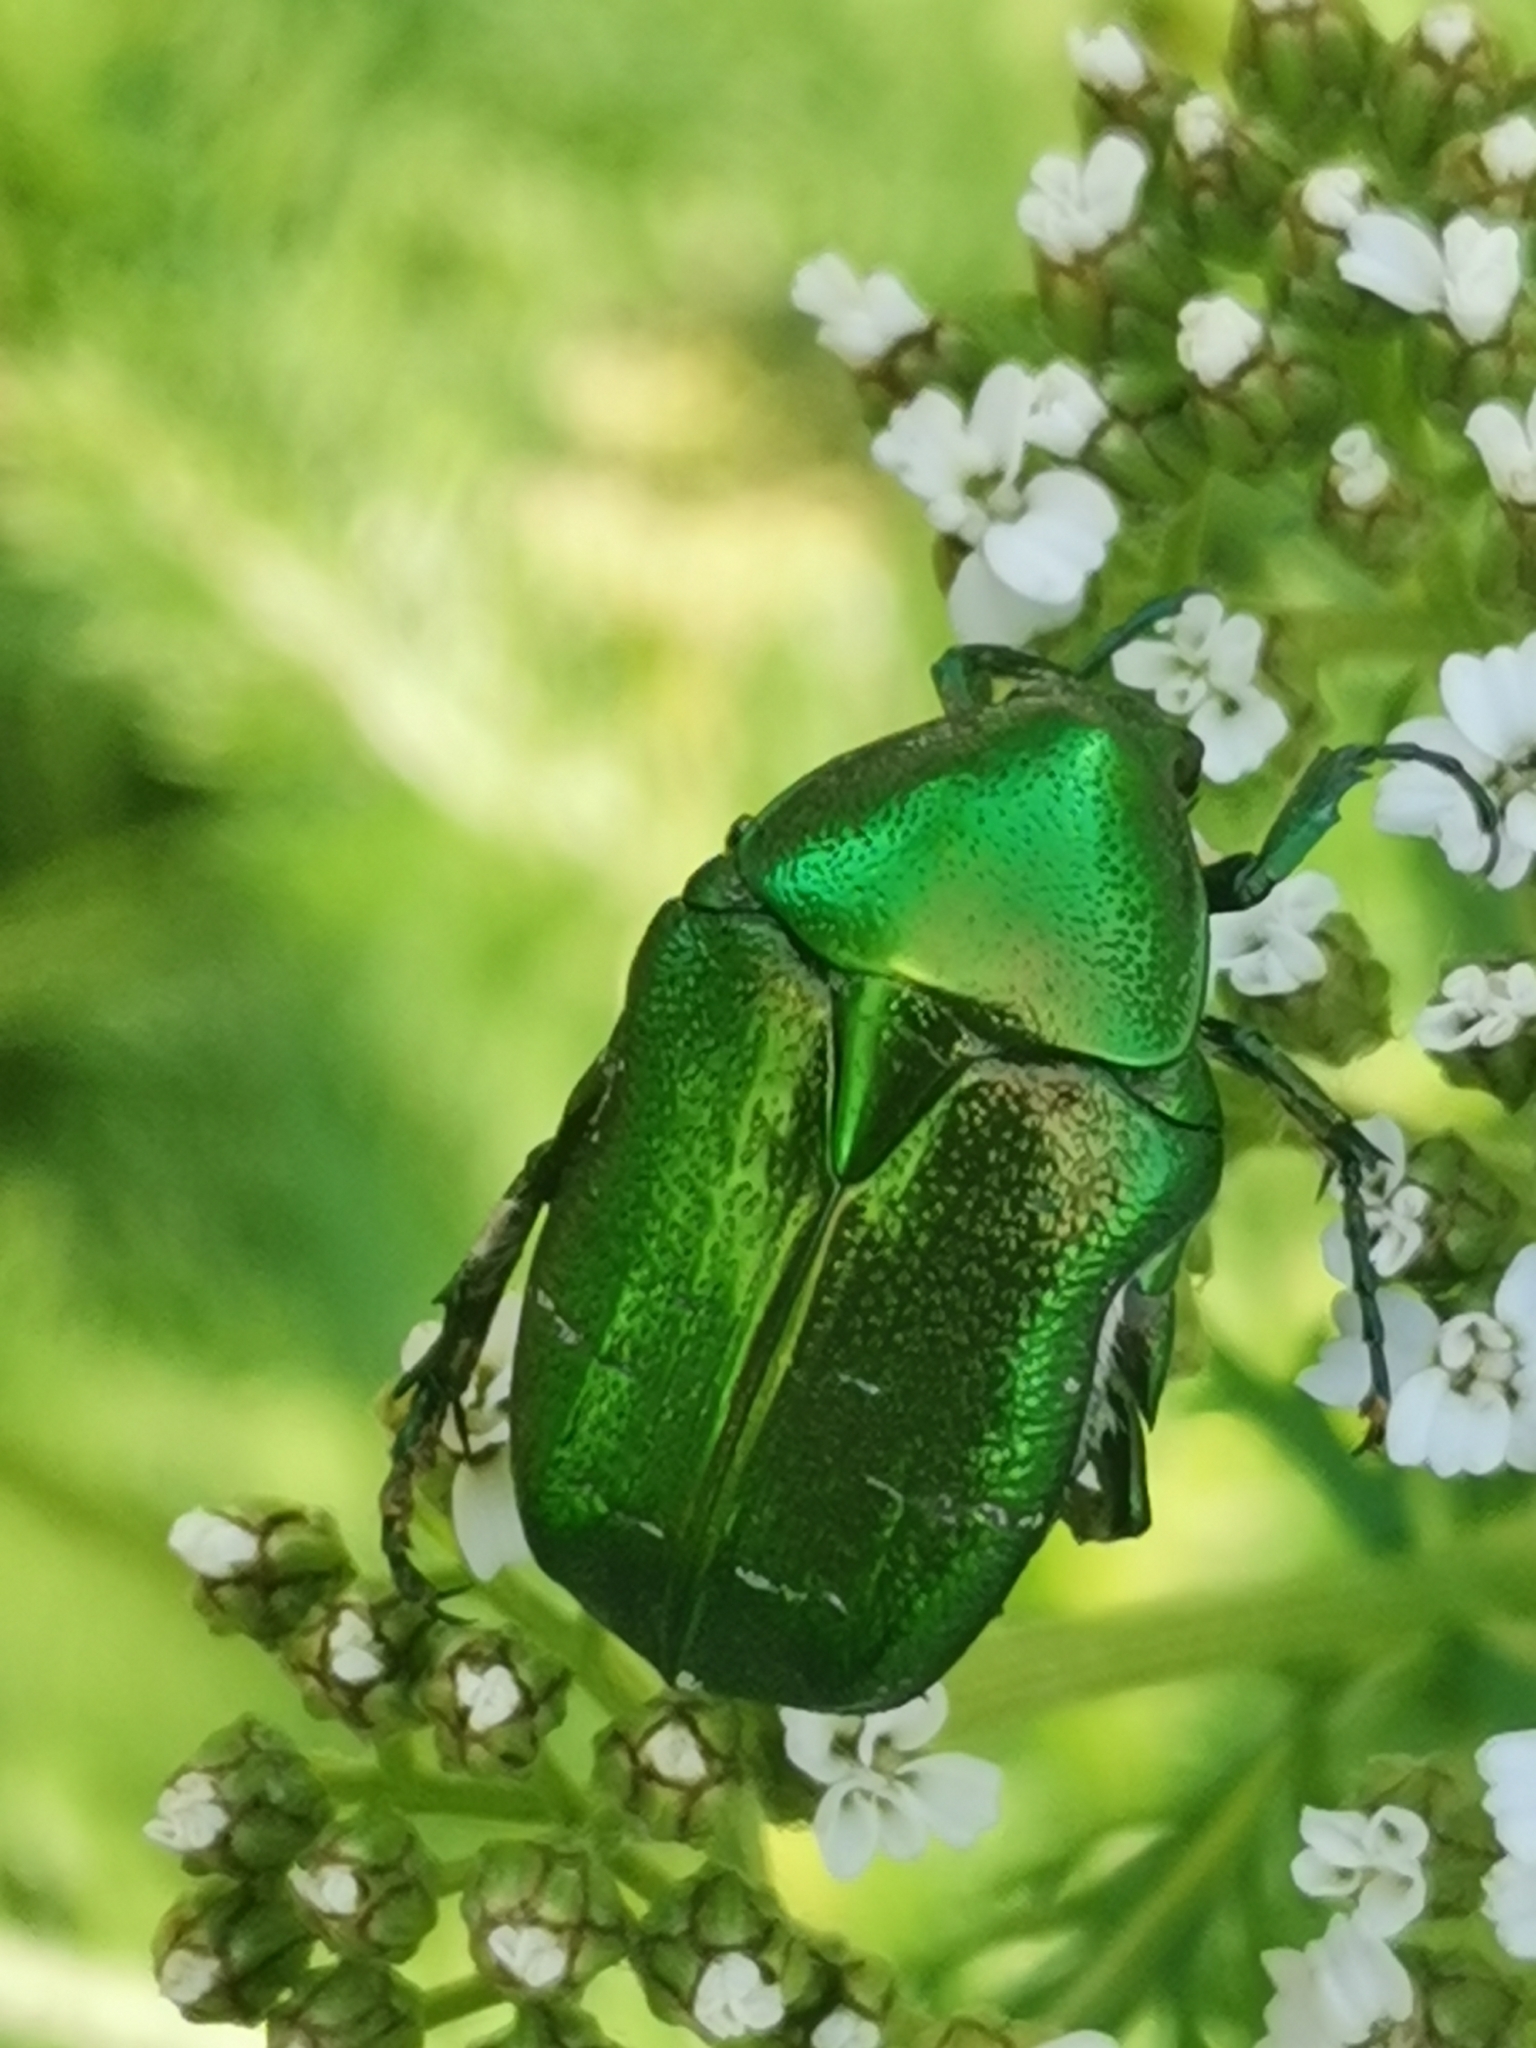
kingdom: Animalia
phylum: Arthropoda
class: Insecta
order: Coleoptera
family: Scarabaeidae
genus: Cetonia
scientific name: Cetonia aurata
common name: Rose chafer
